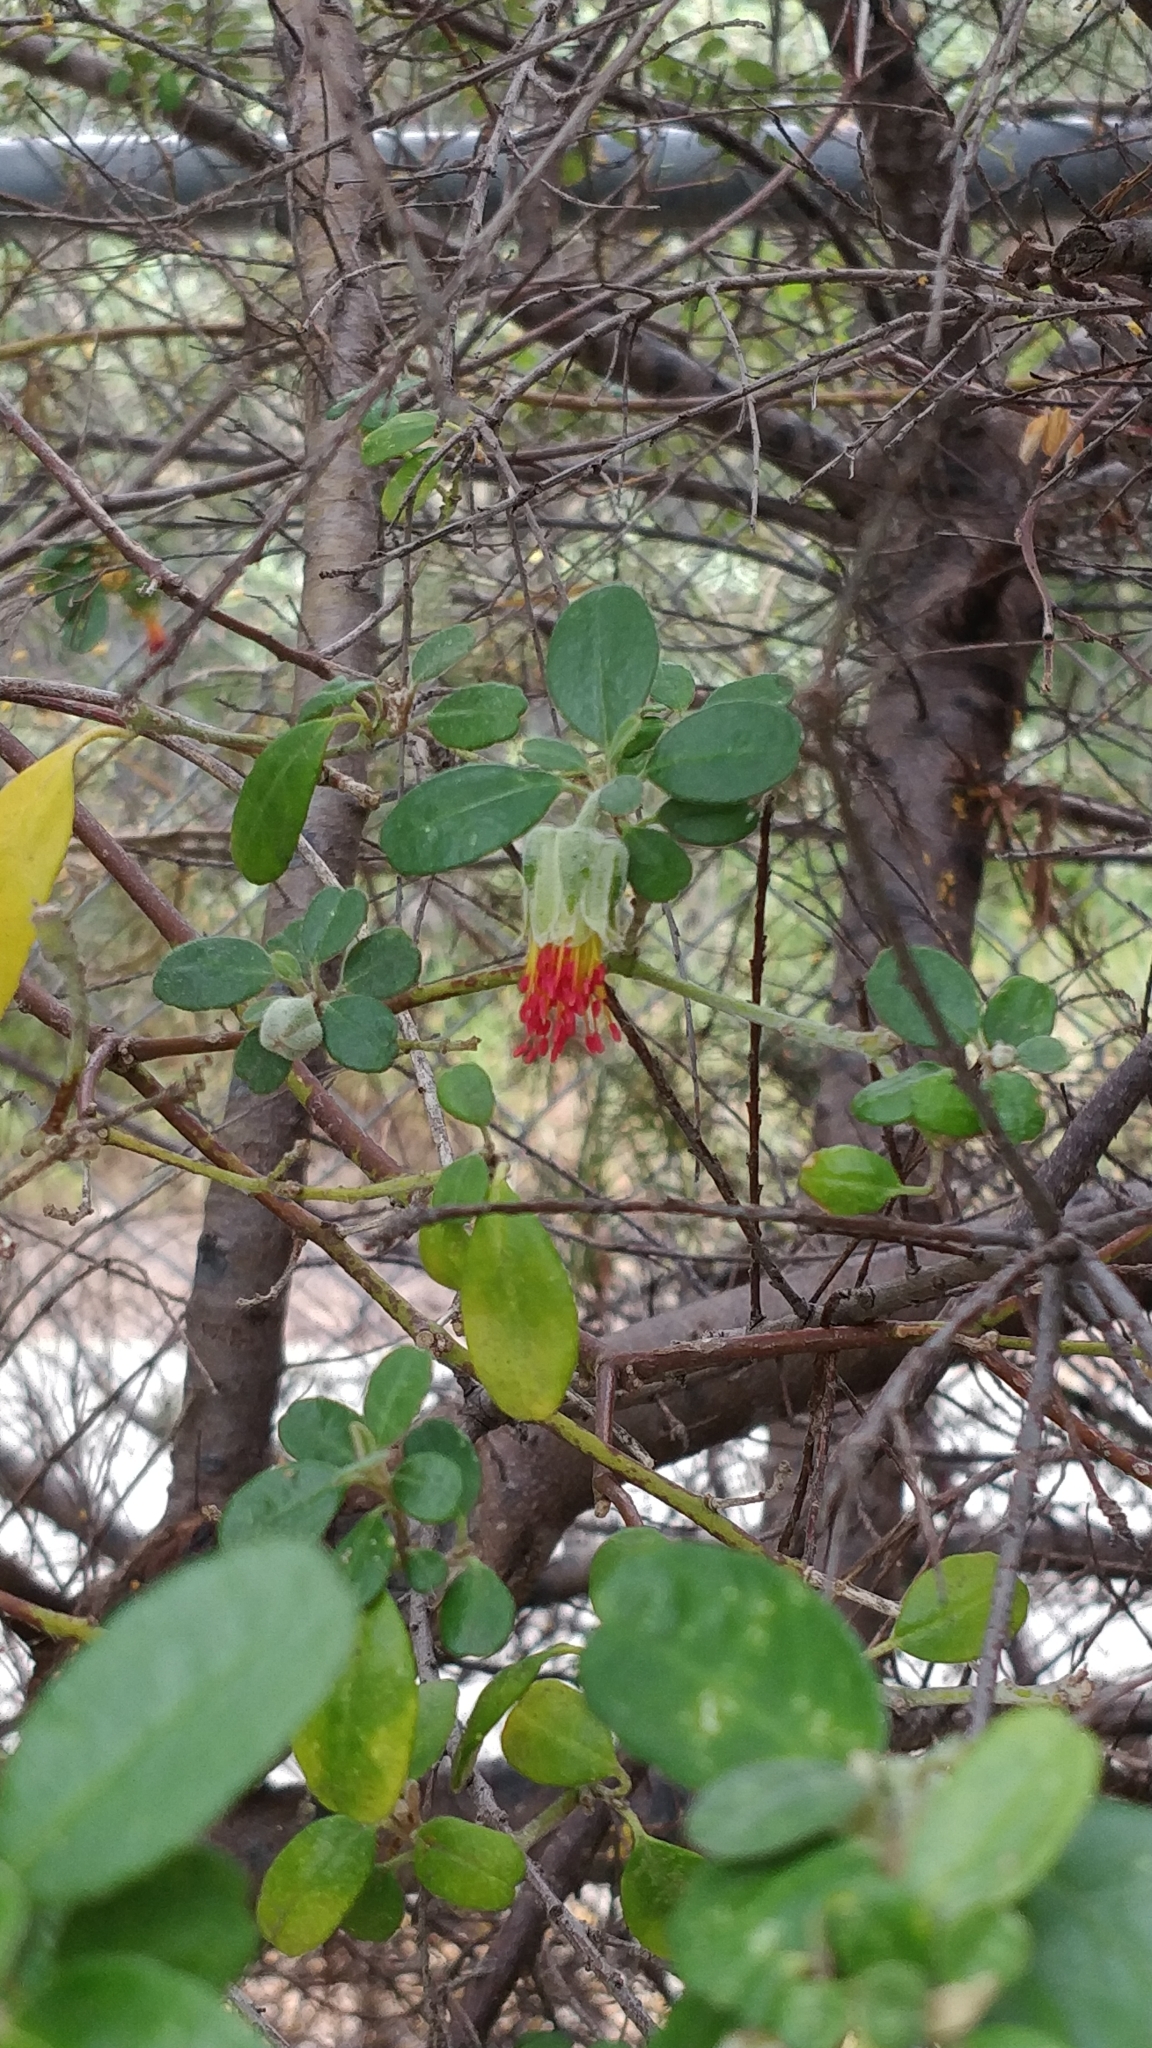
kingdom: Plantae
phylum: Tracheophyta
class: Magnoliopsida
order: Sapindales
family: Rutaceae
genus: Diplolaena
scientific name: Diplolaena dampieri
